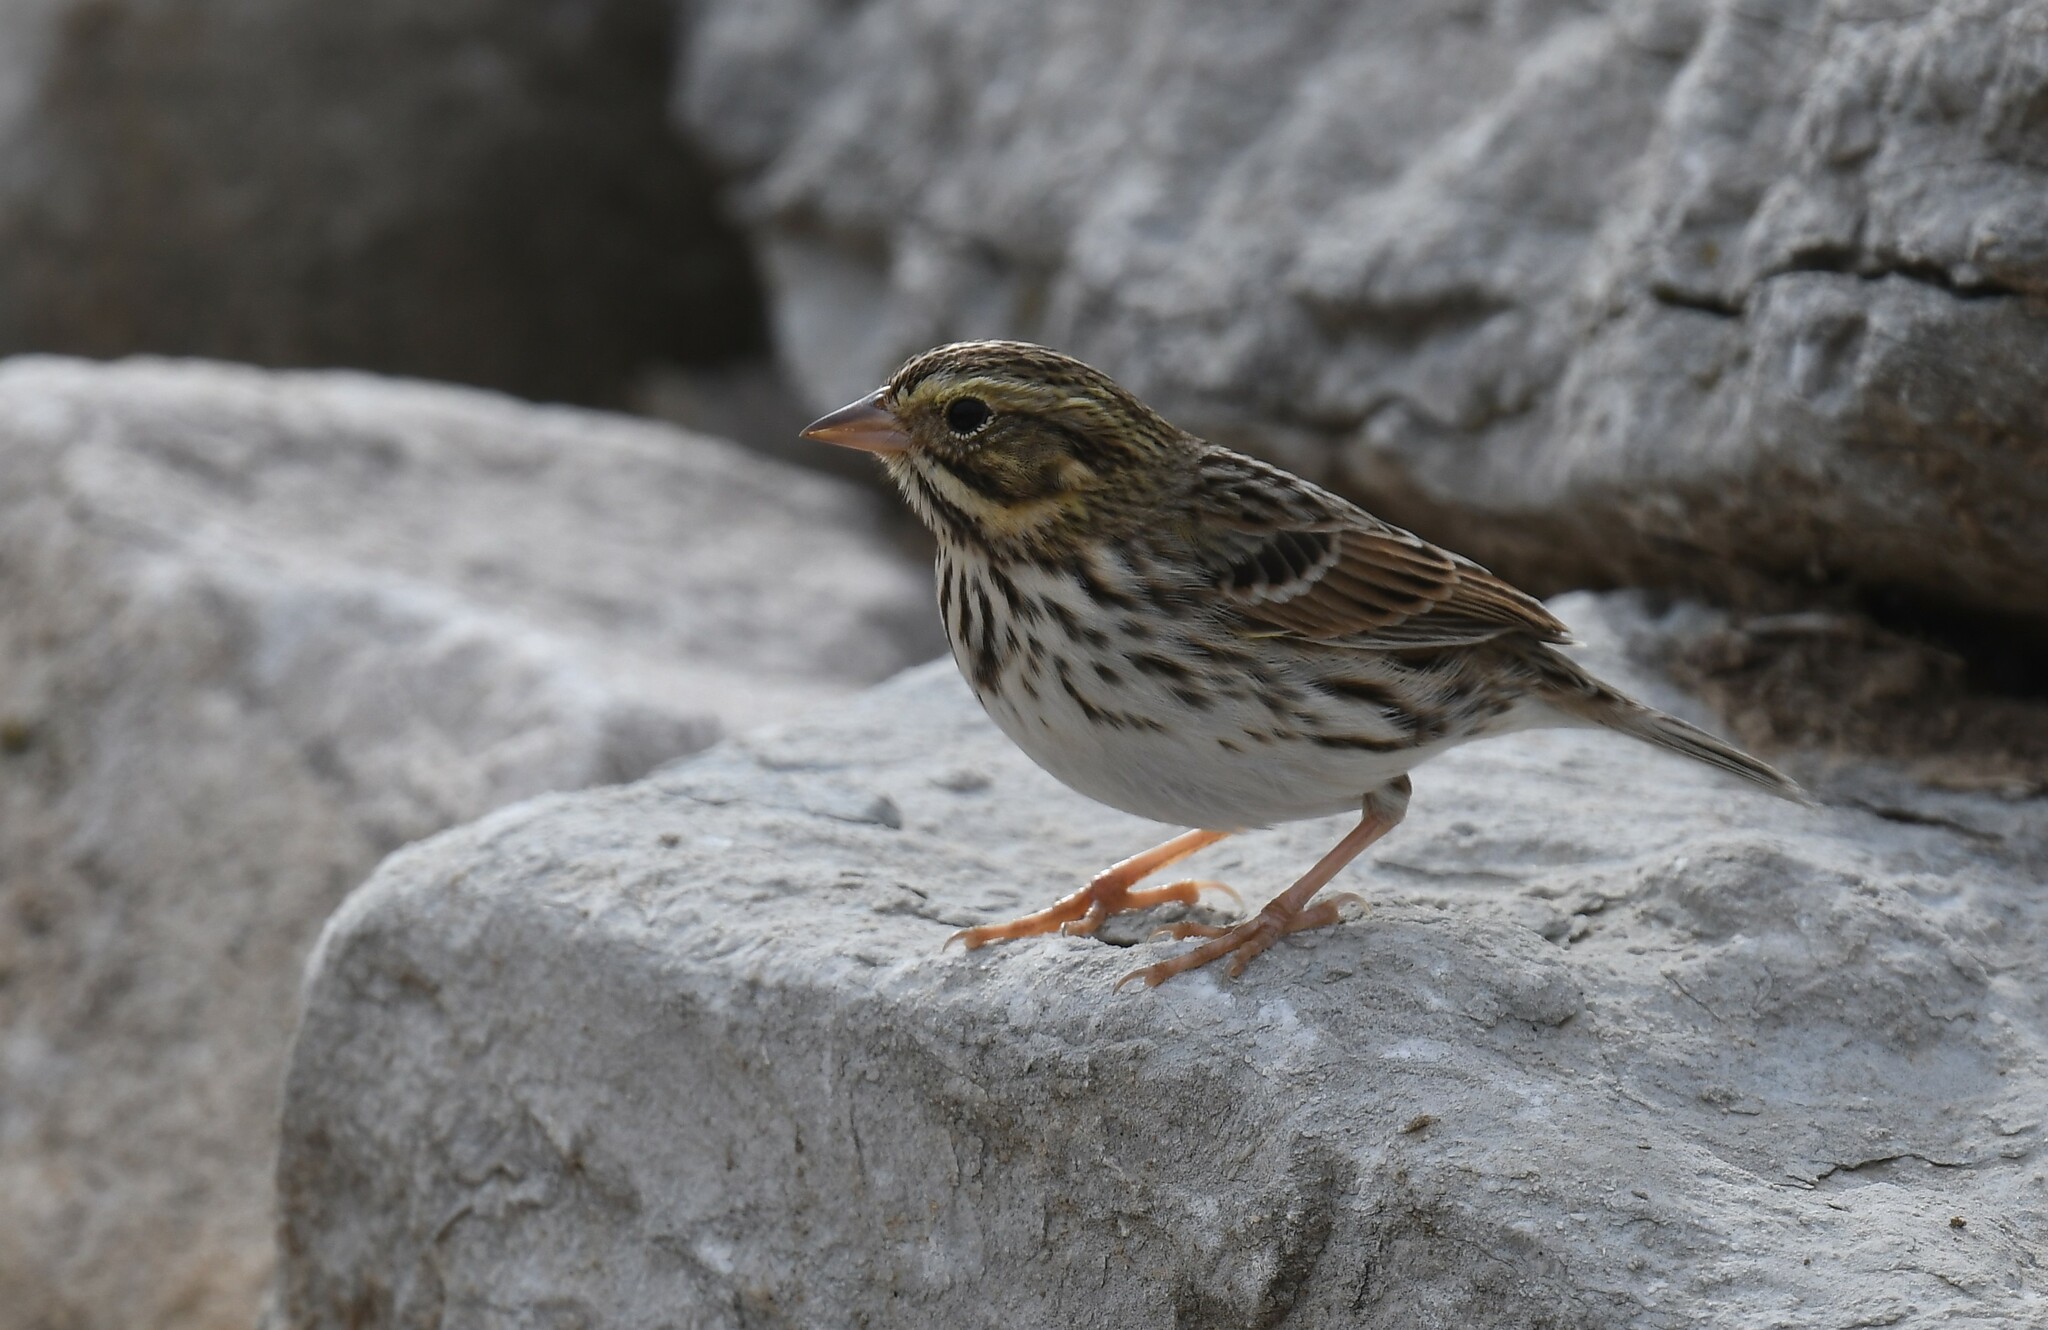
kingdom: Animalia
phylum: Chordata
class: Aves
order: Passeriformes
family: Passerellidae
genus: Passerculus
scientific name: Passerculus sandwichensis
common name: Savannah sparrow
